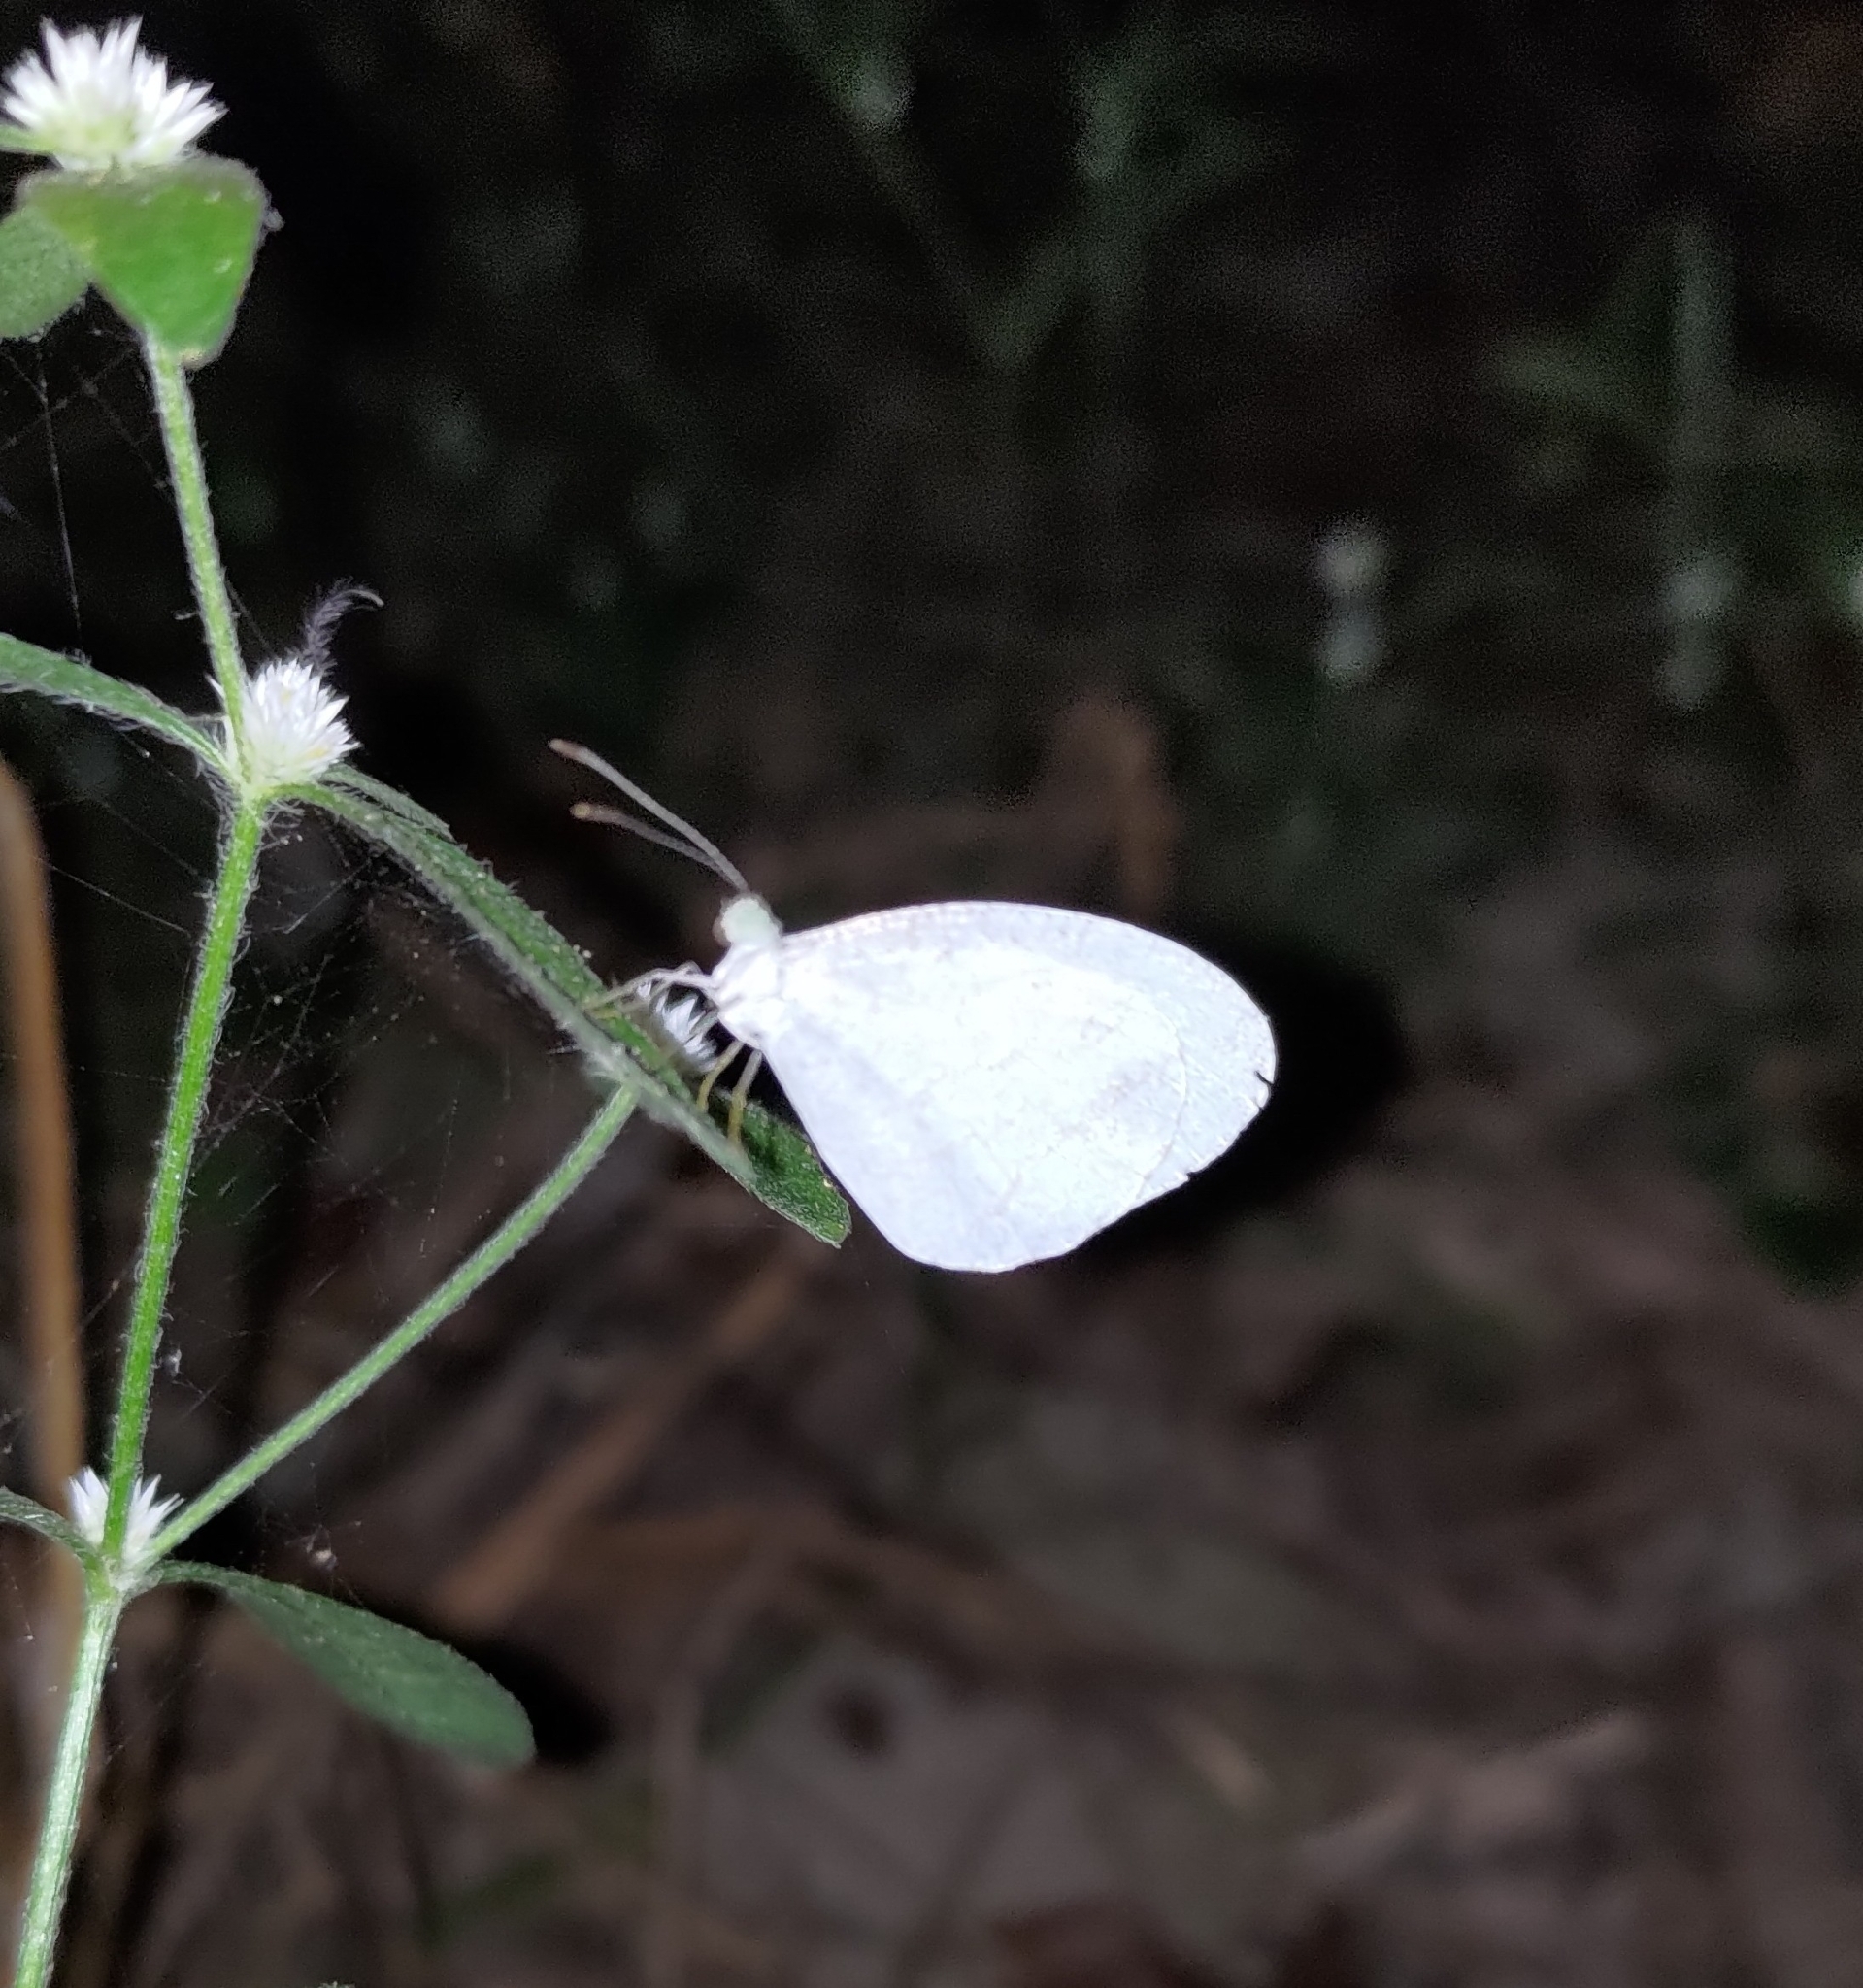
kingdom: Animalia
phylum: Arthropoda
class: Insecta
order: Lepidoptera
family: Pieridae
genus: Leptosia
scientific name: Leptosia nina
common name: Psyche
